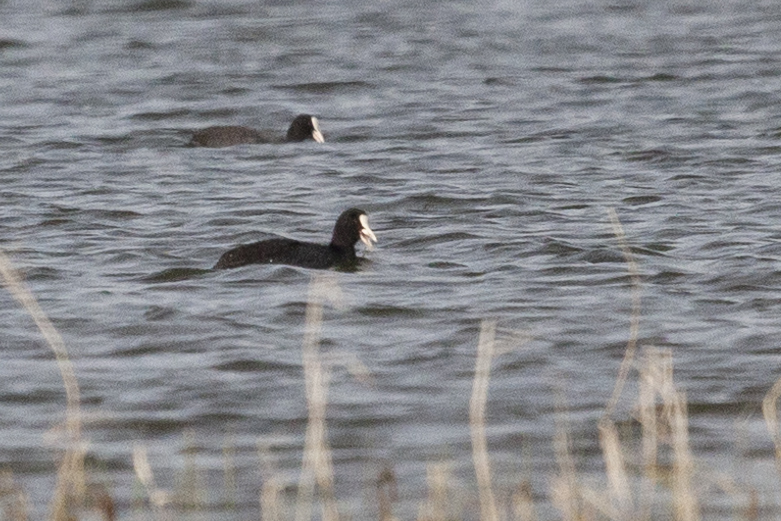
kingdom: Animalia
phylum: Chordata
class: Aves
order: Gruiformes
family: Rallidae
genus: Fulica
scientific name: Fulica atra
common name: Eurasian coot
